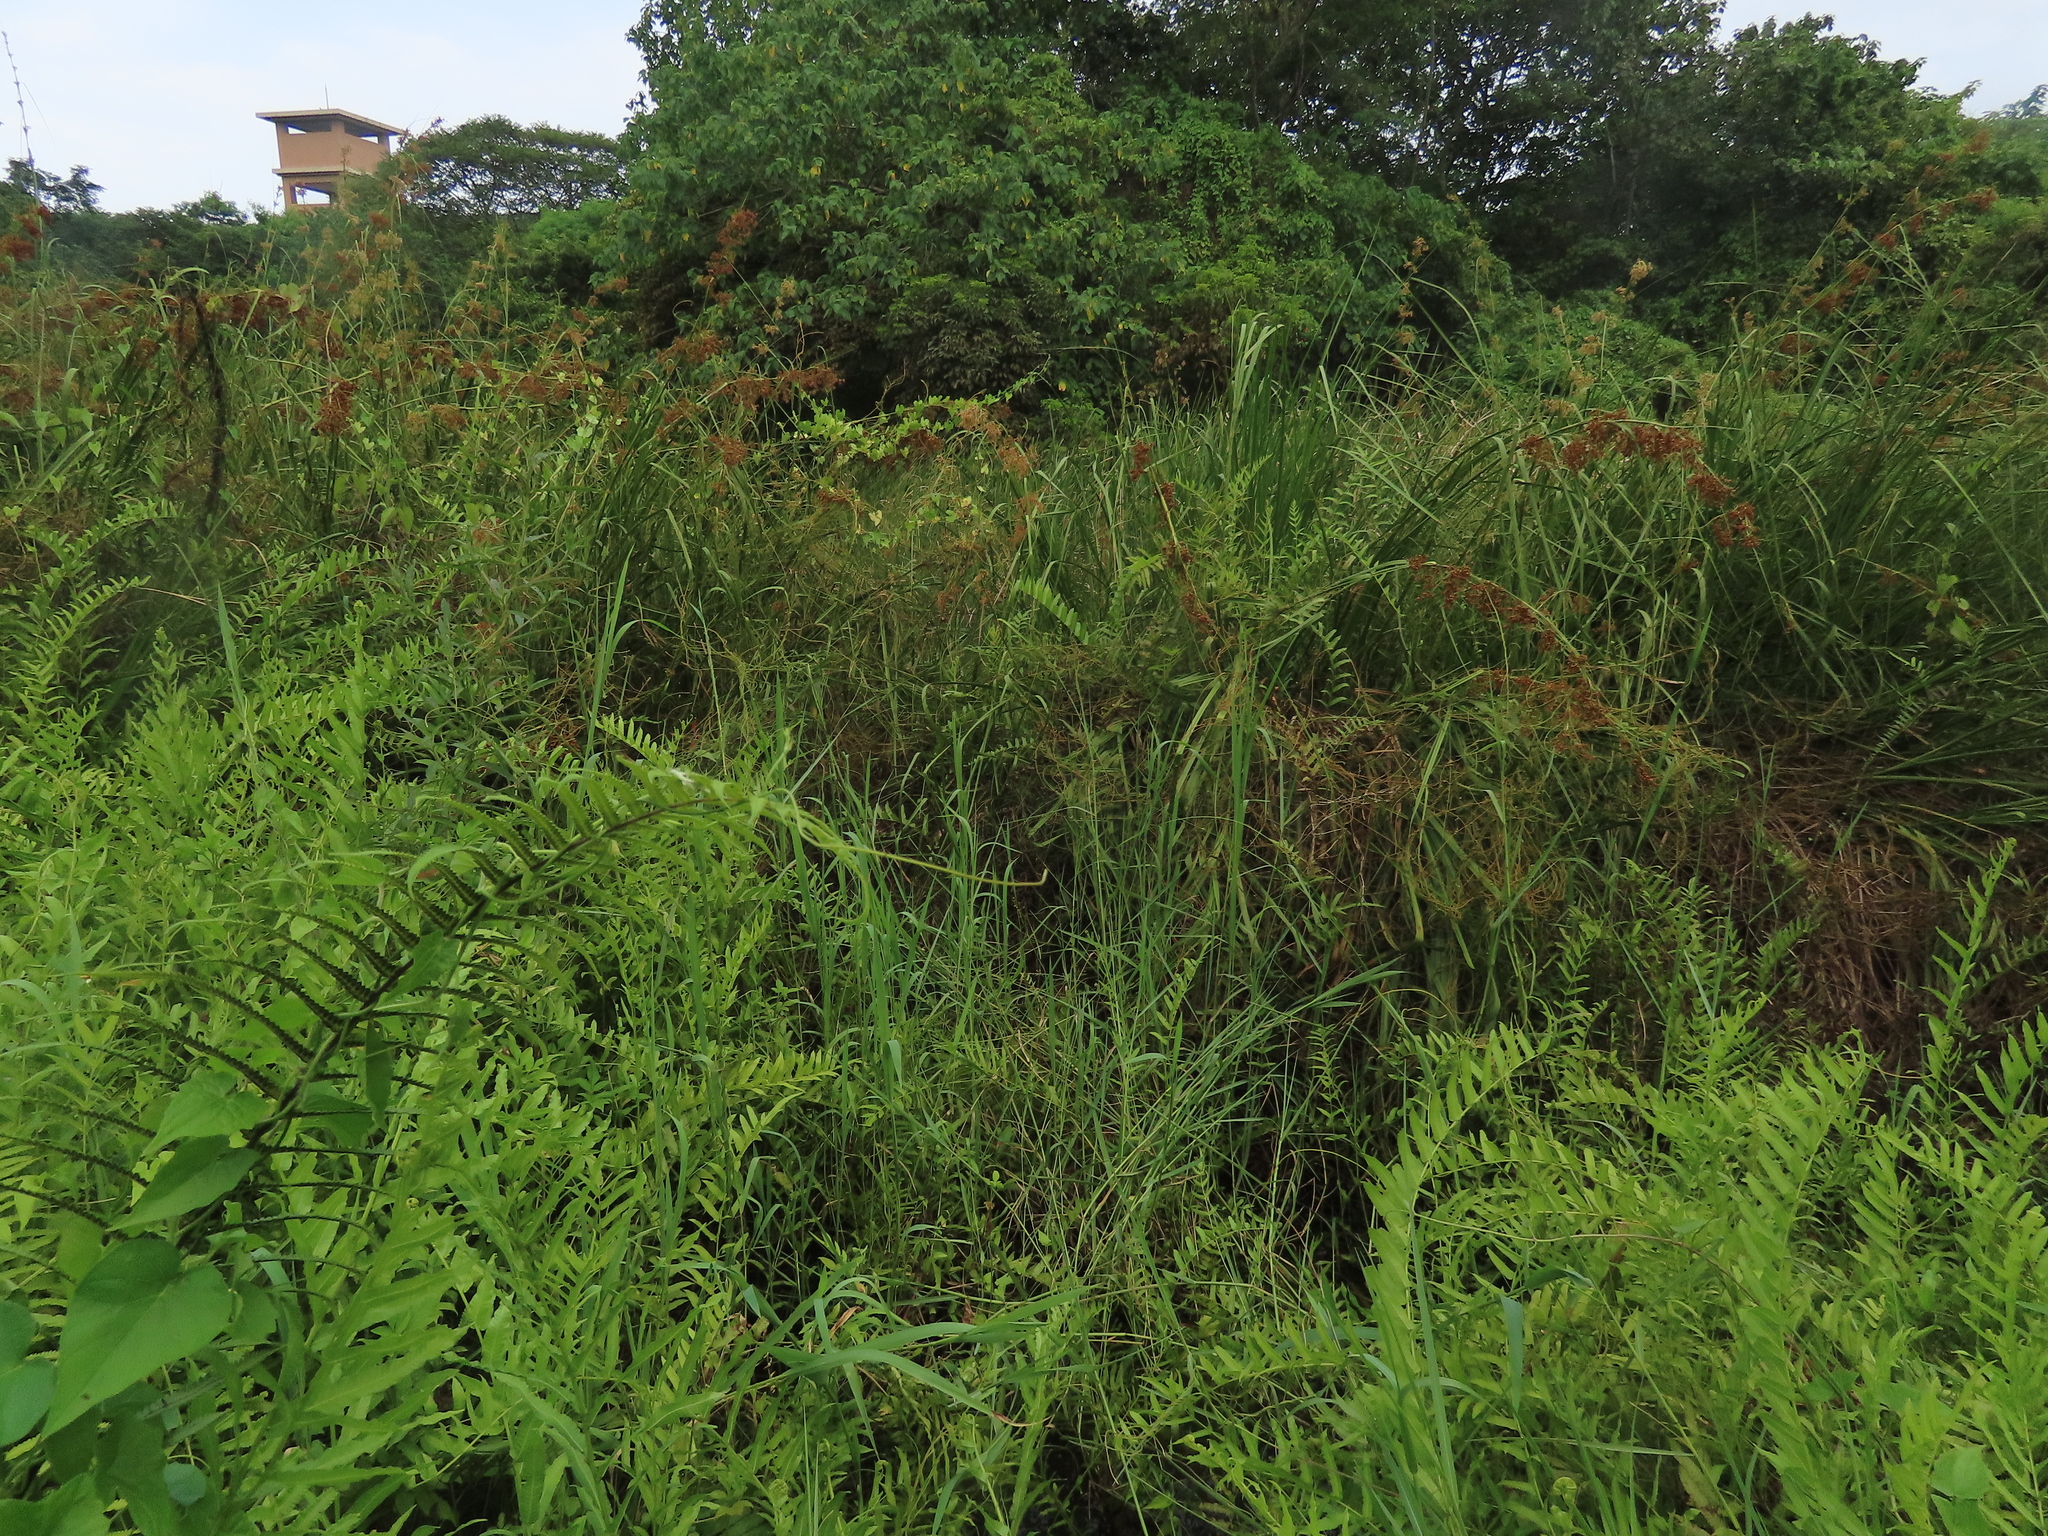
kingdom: Plantae
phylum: Tracheophyta
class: Liliopsida
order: Poales
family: Cyperaceae
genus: Cladium
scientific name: Cladium mariscus
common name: Great fen-sedge
